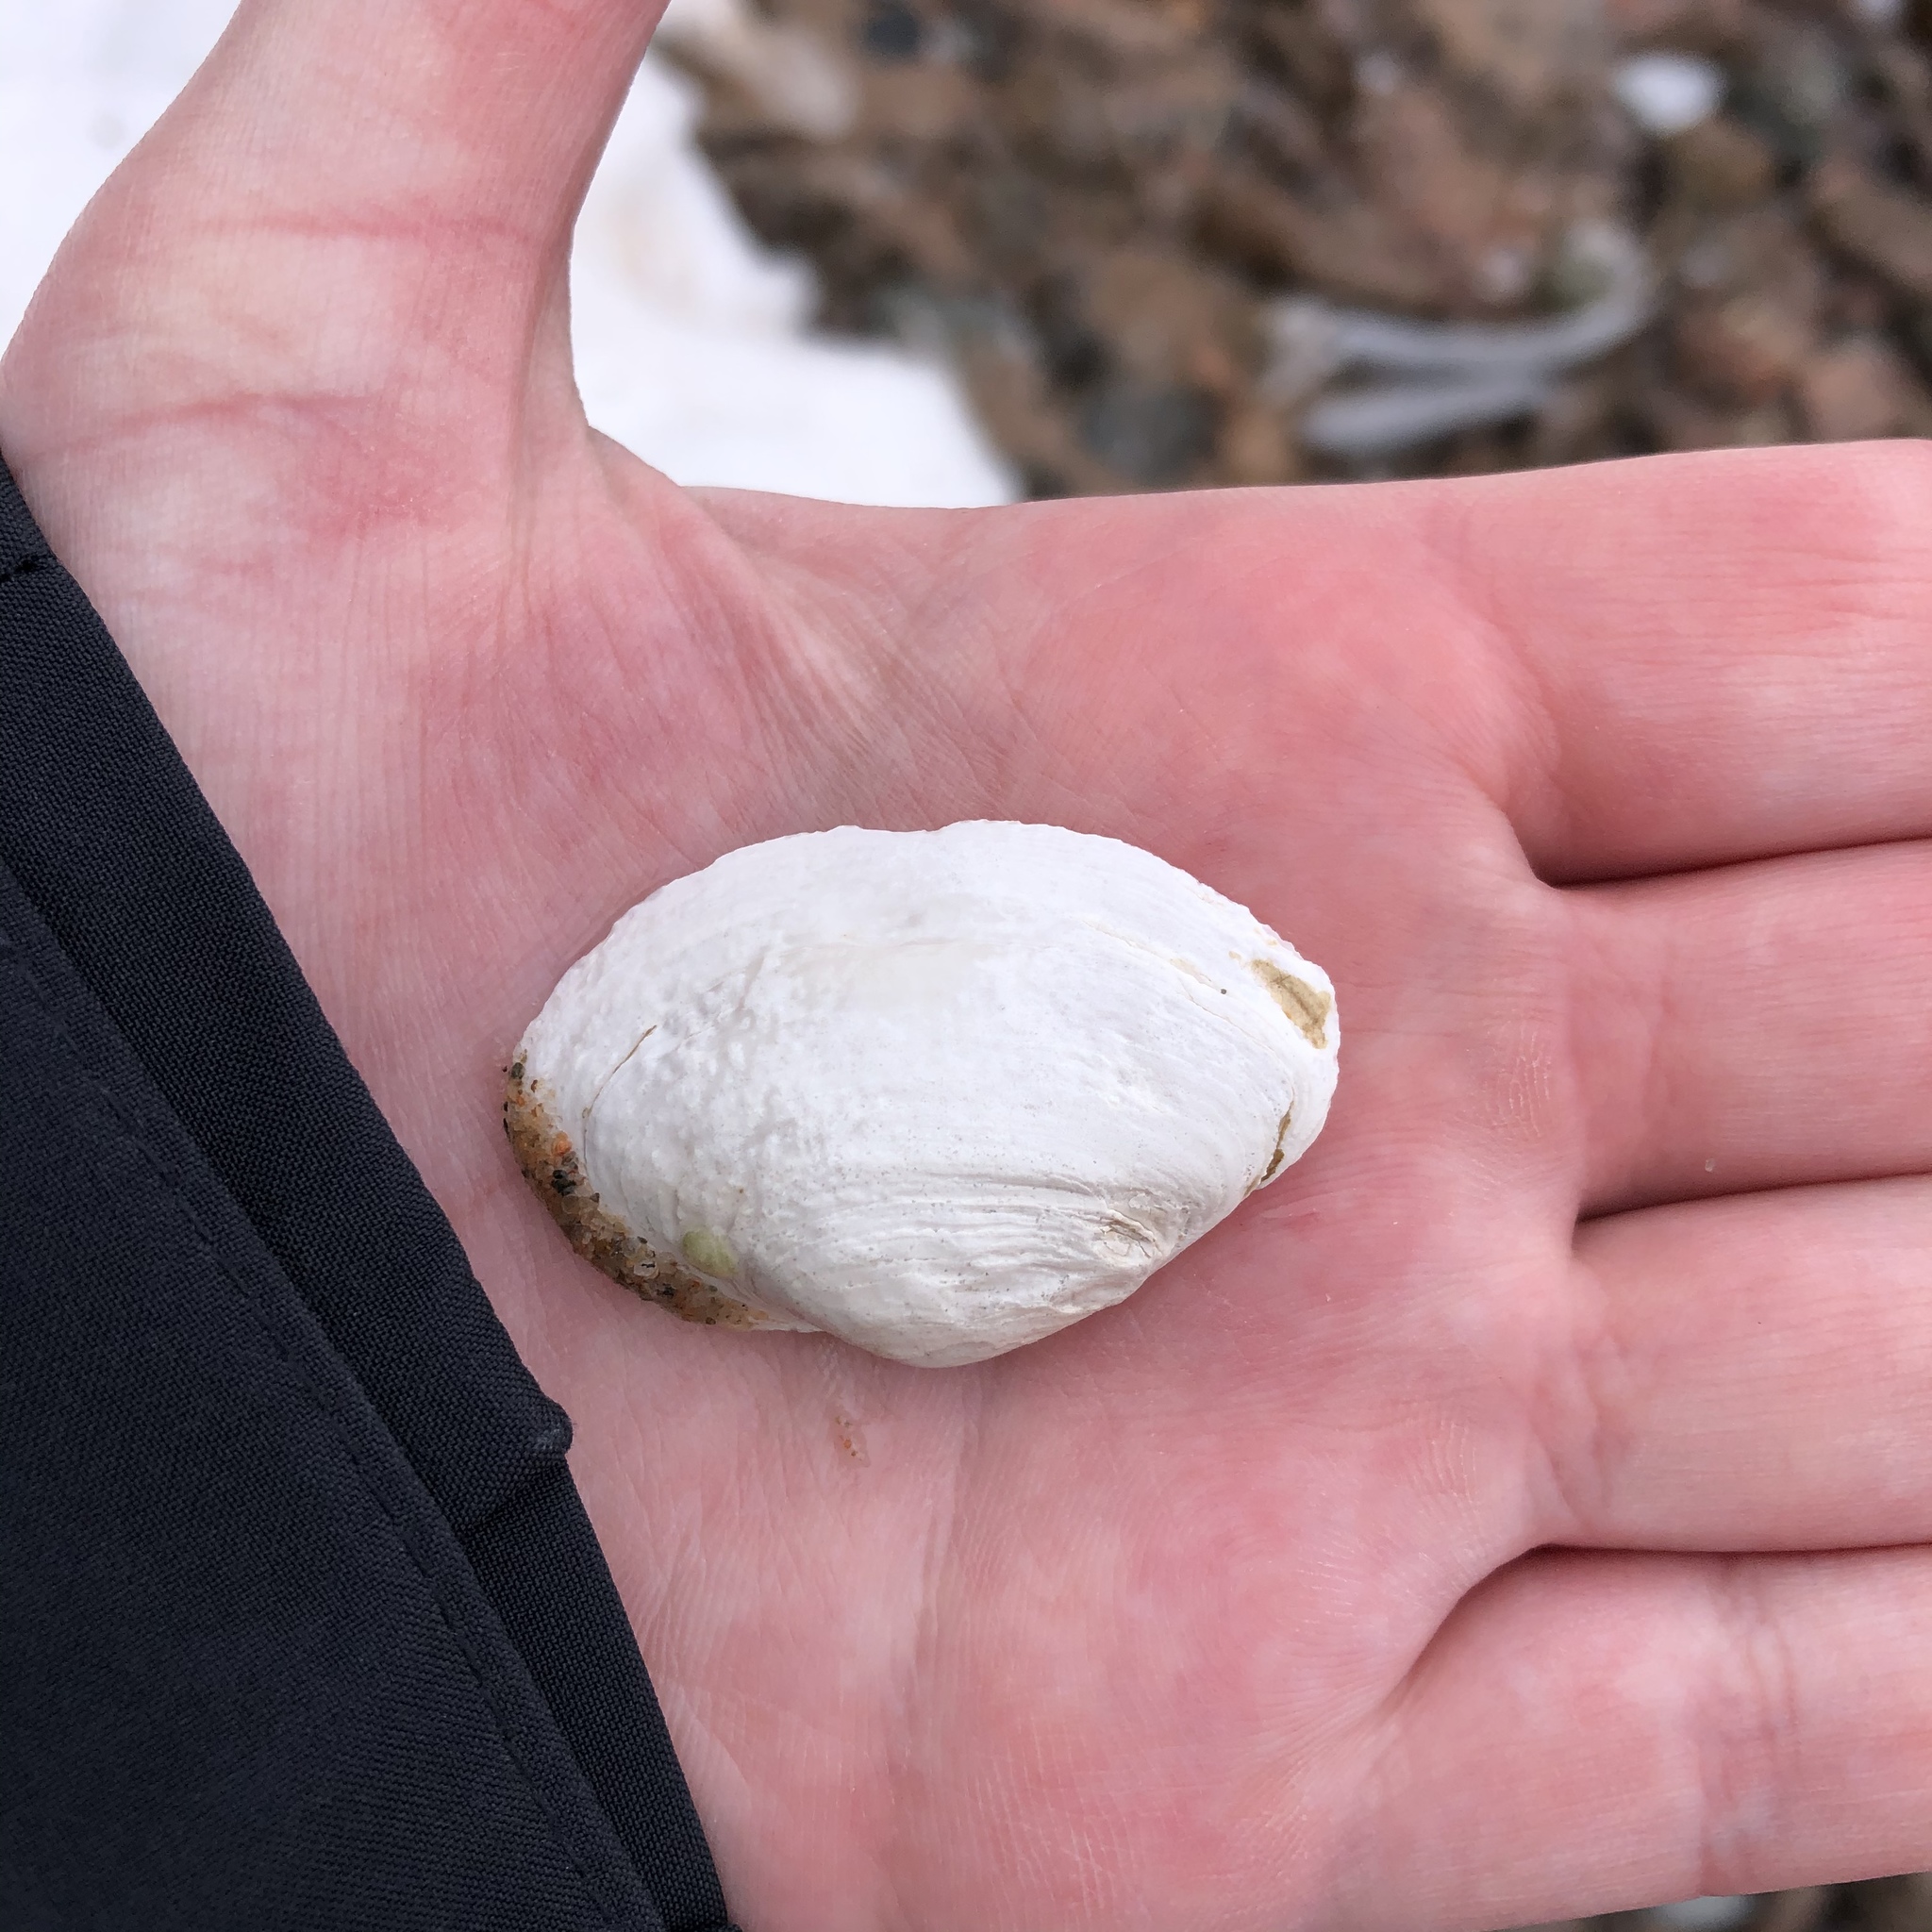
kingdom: Animalia
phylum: Mollusca
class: Bivalvia
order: Myida
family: Myidae
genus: Mya
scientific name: Mya arenaria
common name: Soft-shelled clam
